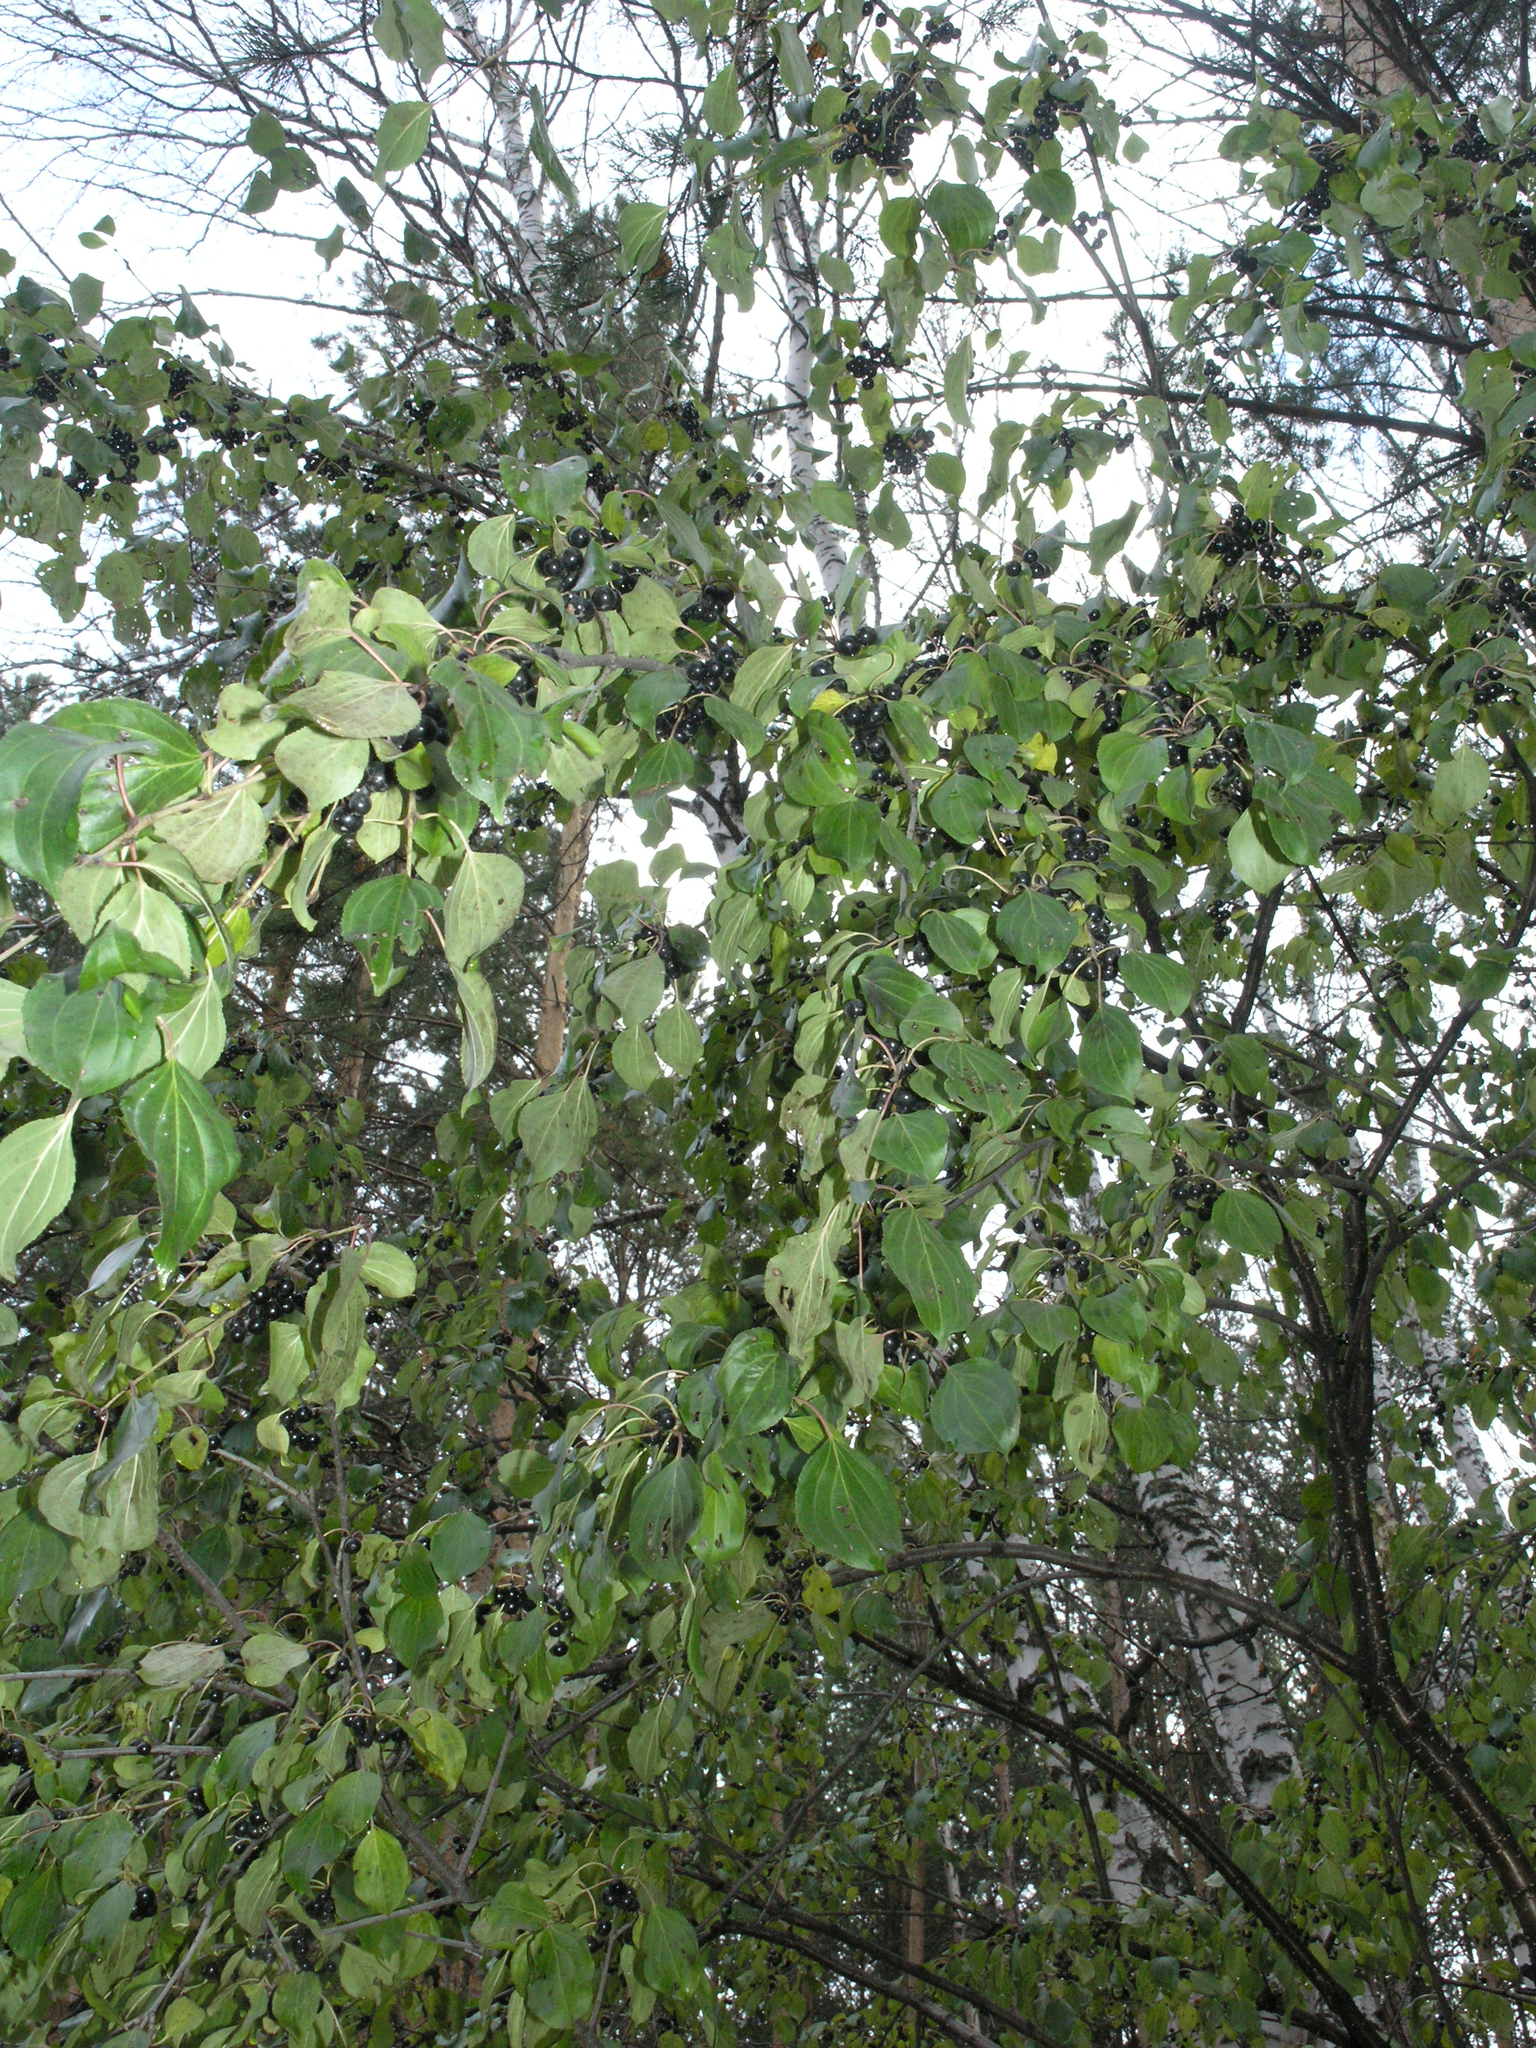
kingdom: Plantae
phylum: Tracheophyta
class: Magnoliopsida
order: Rosales
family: Rhamnaceae
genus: Rhamnus
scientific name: Rhamnus cathartica
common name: Common buckthorn
